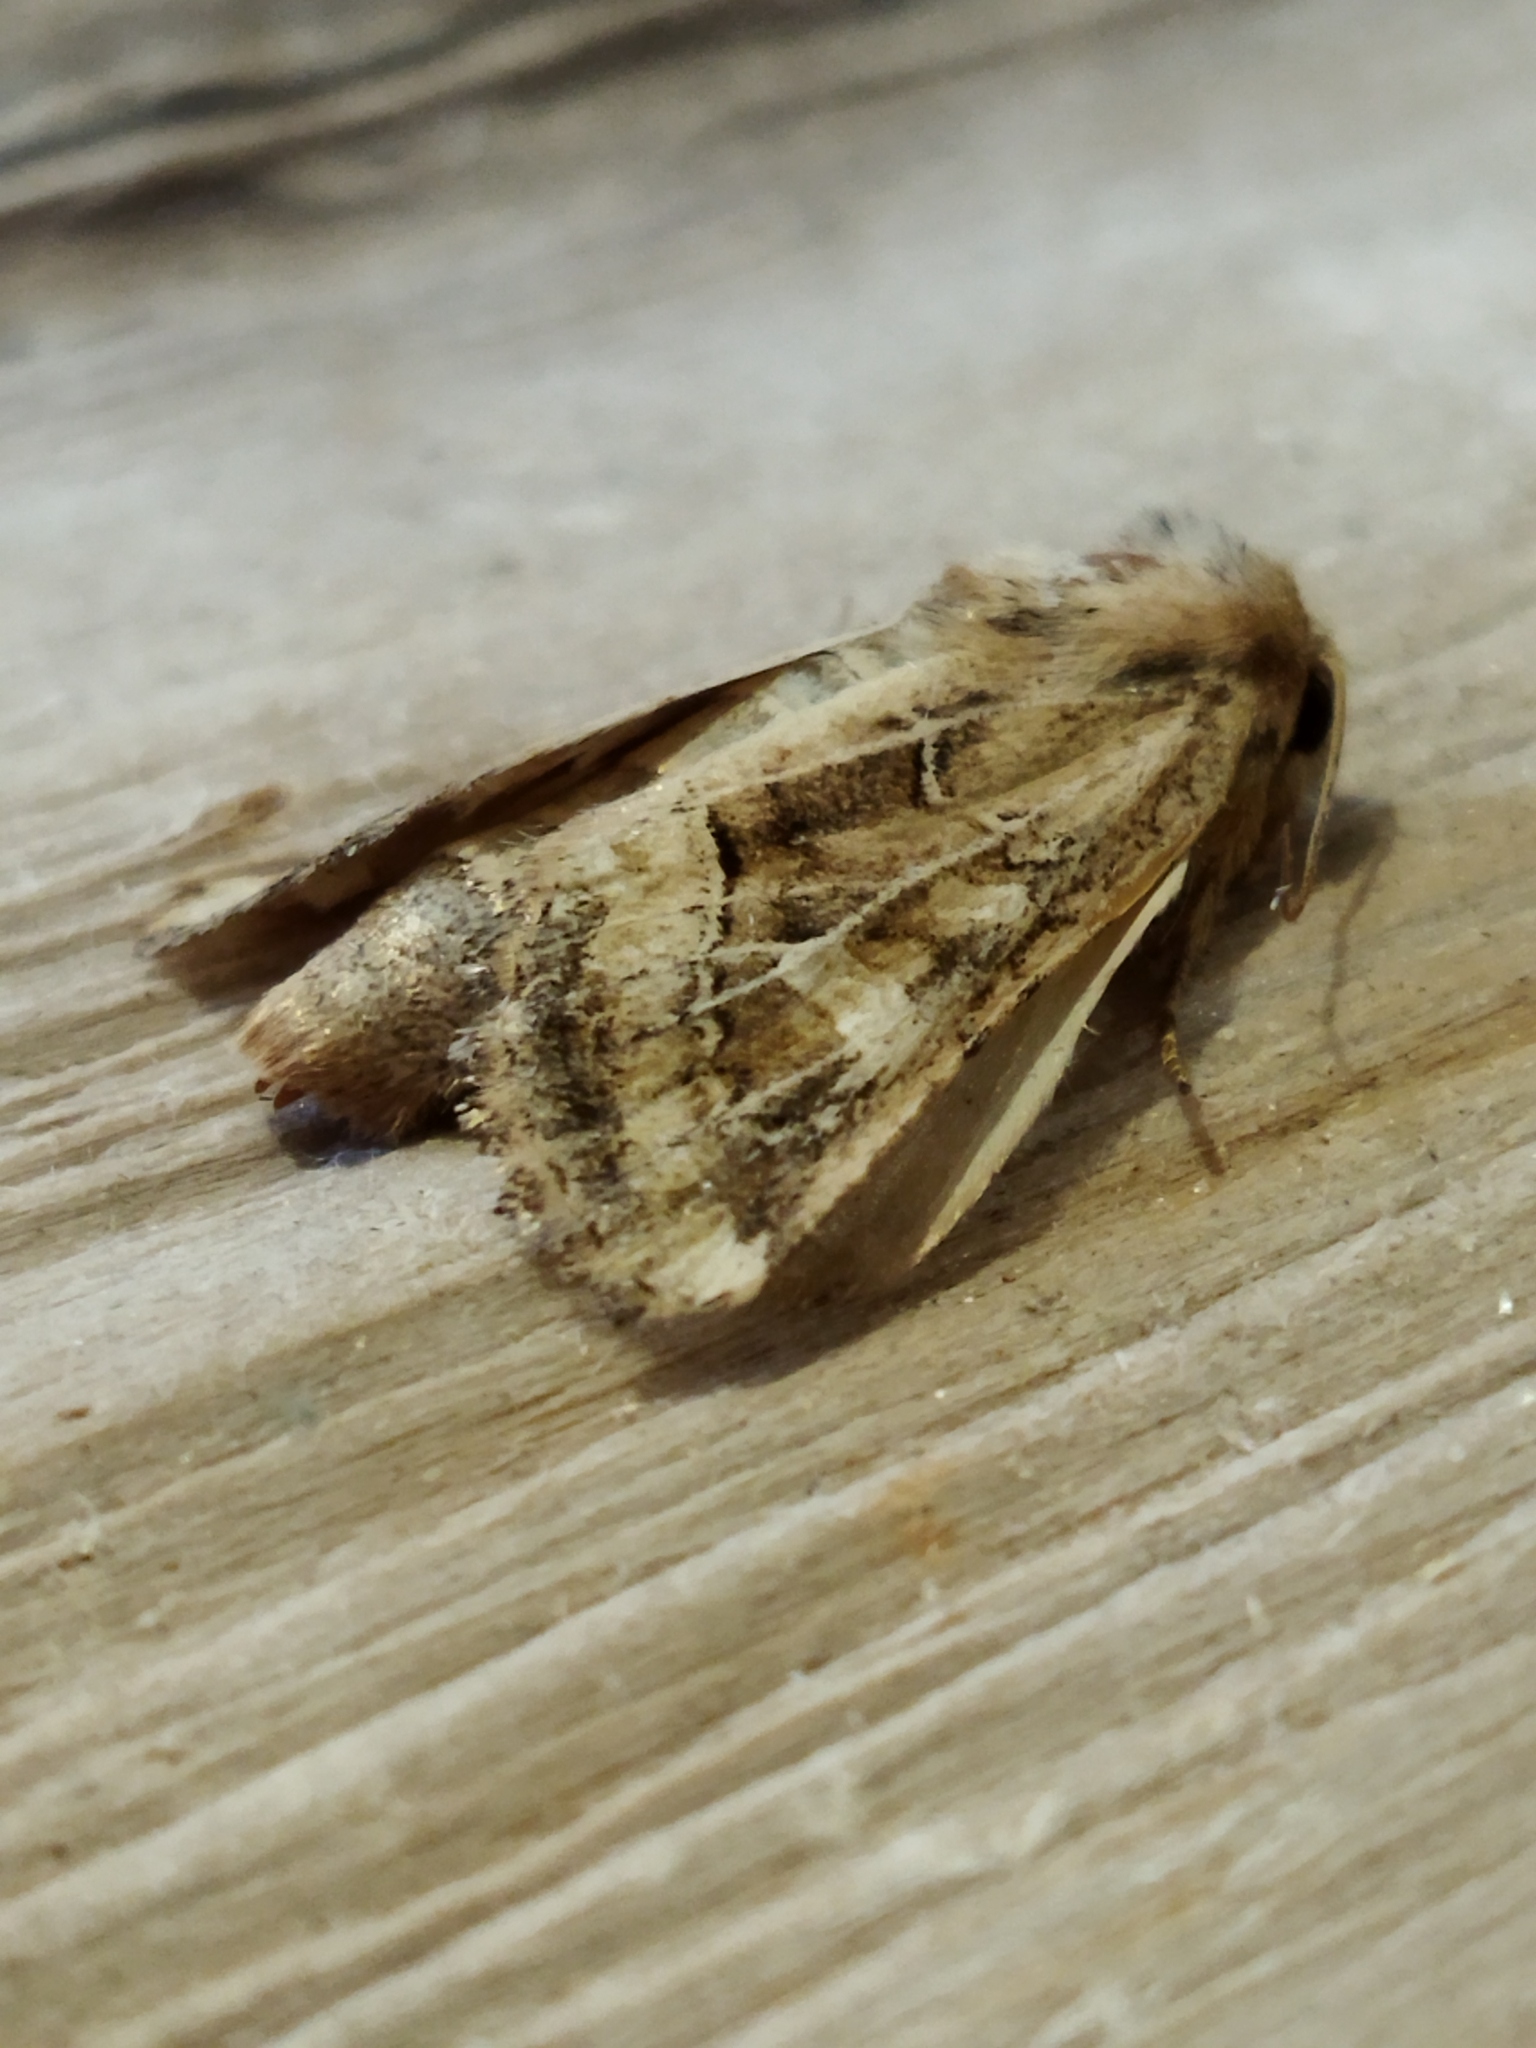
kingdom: Animalia
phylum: Arthropoda
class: Insecta
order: Lepidoptera
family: Noctuidae
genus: Luperina
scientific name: Luperina dumerilii
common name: Dumeril's rustic
